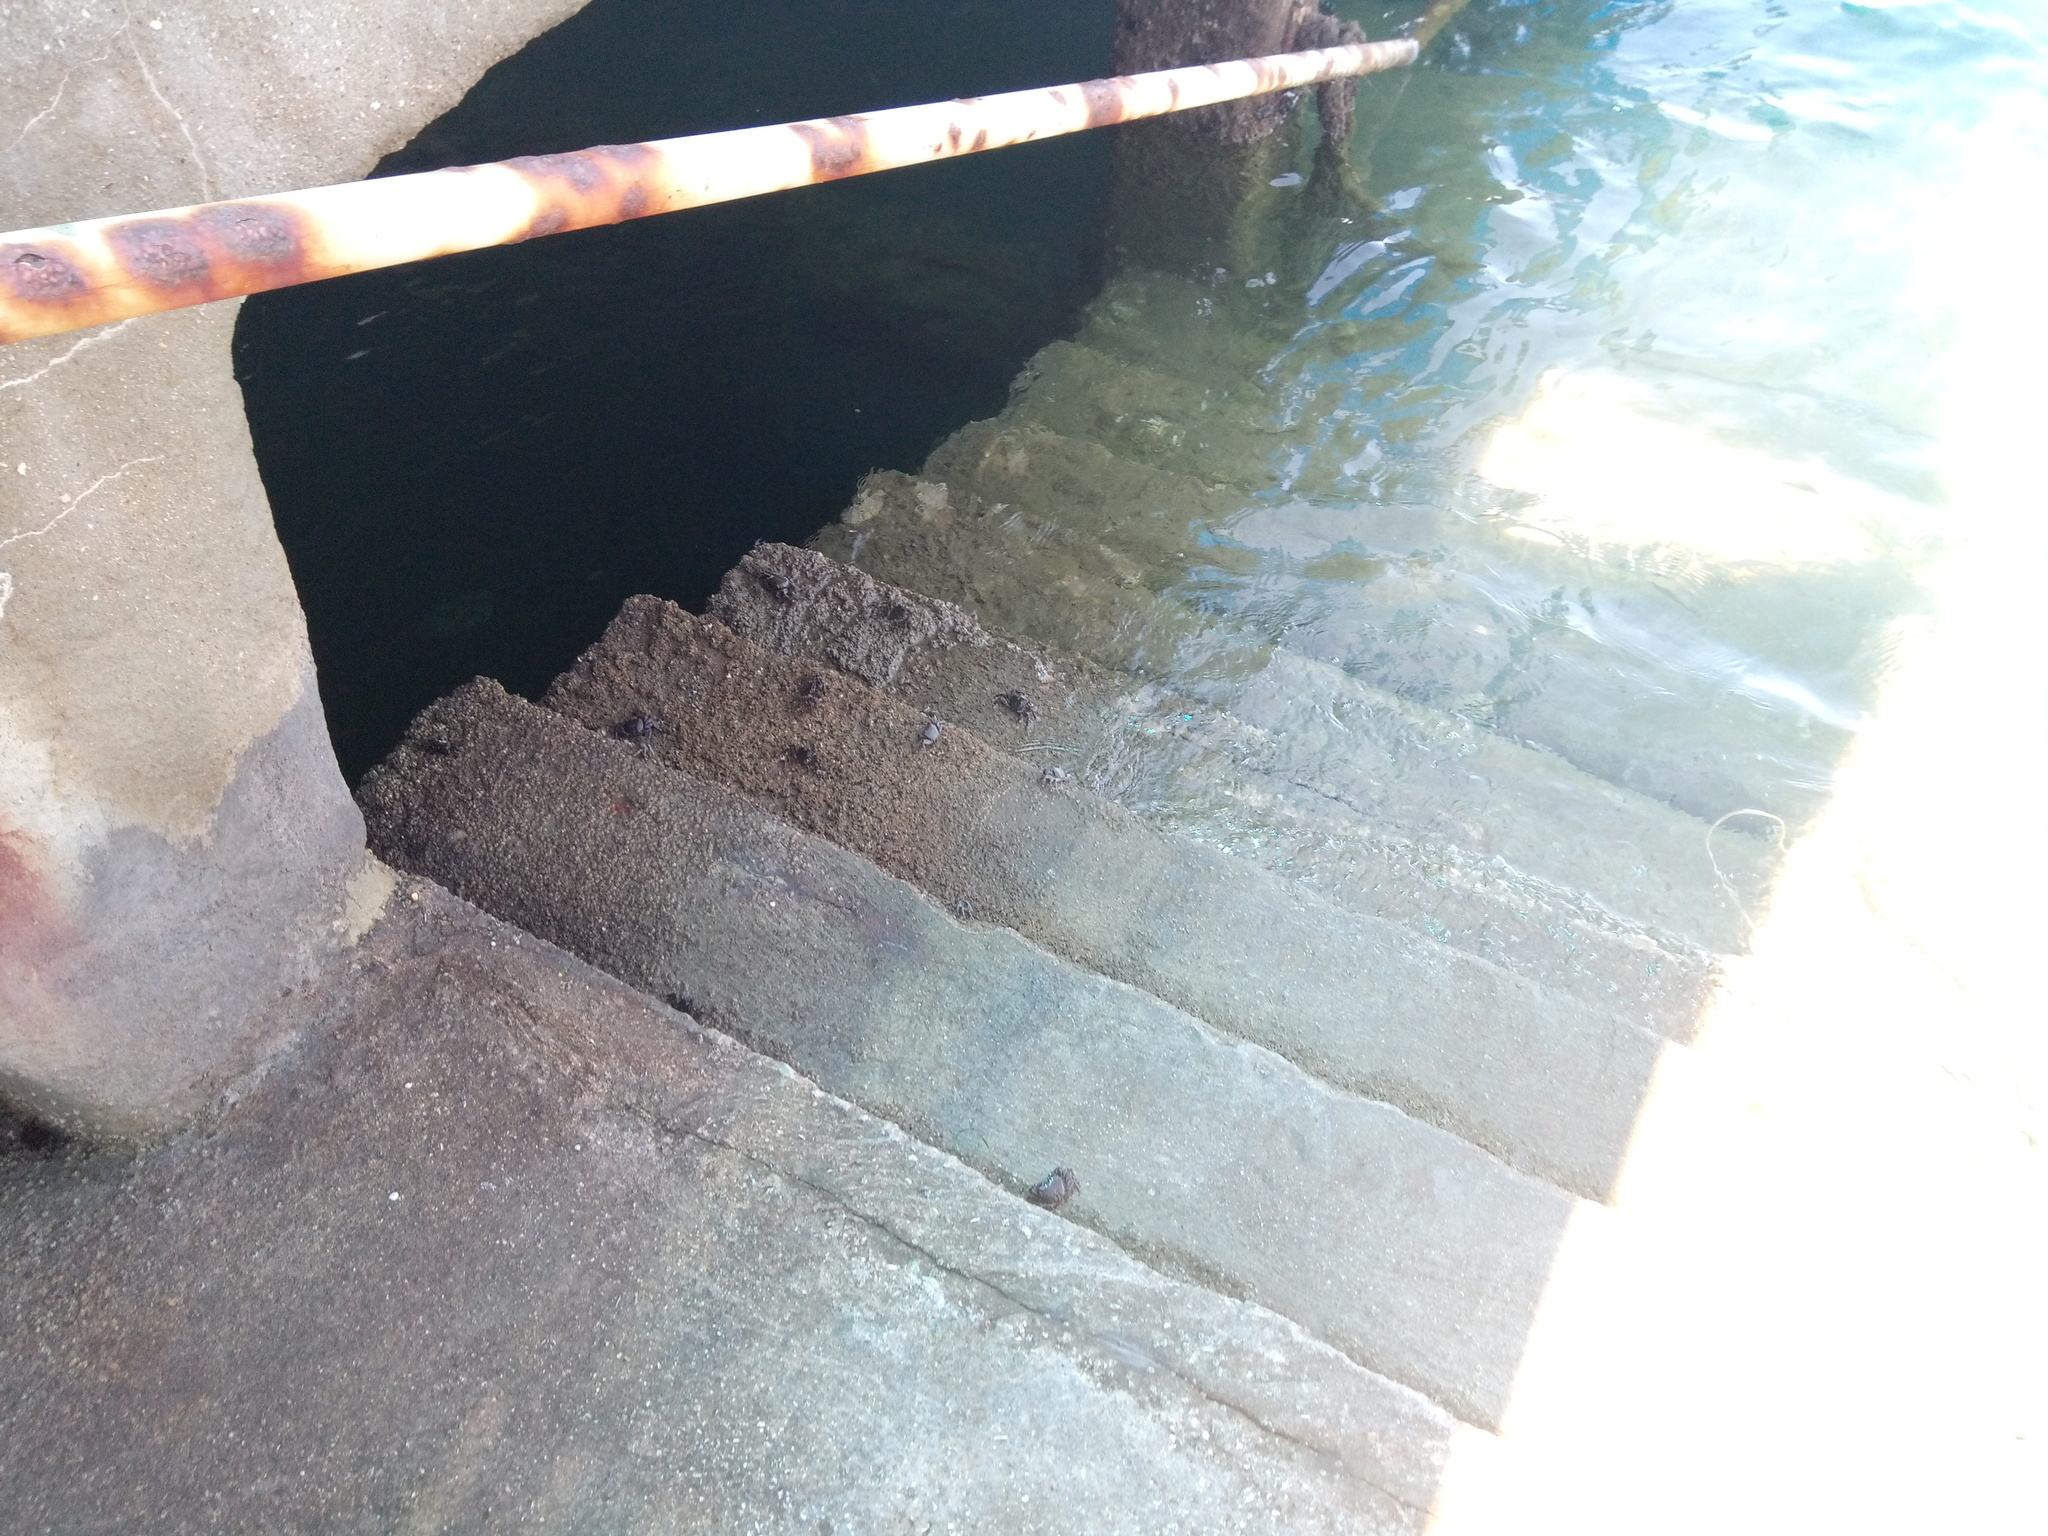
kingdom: Animalia
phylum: Arthropoda
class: Malacostraca
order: Decapoda
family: Grapsidae
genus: Pachygrapsus
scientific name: Pachygrapsus marmoratus
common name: Marbled rock crab
